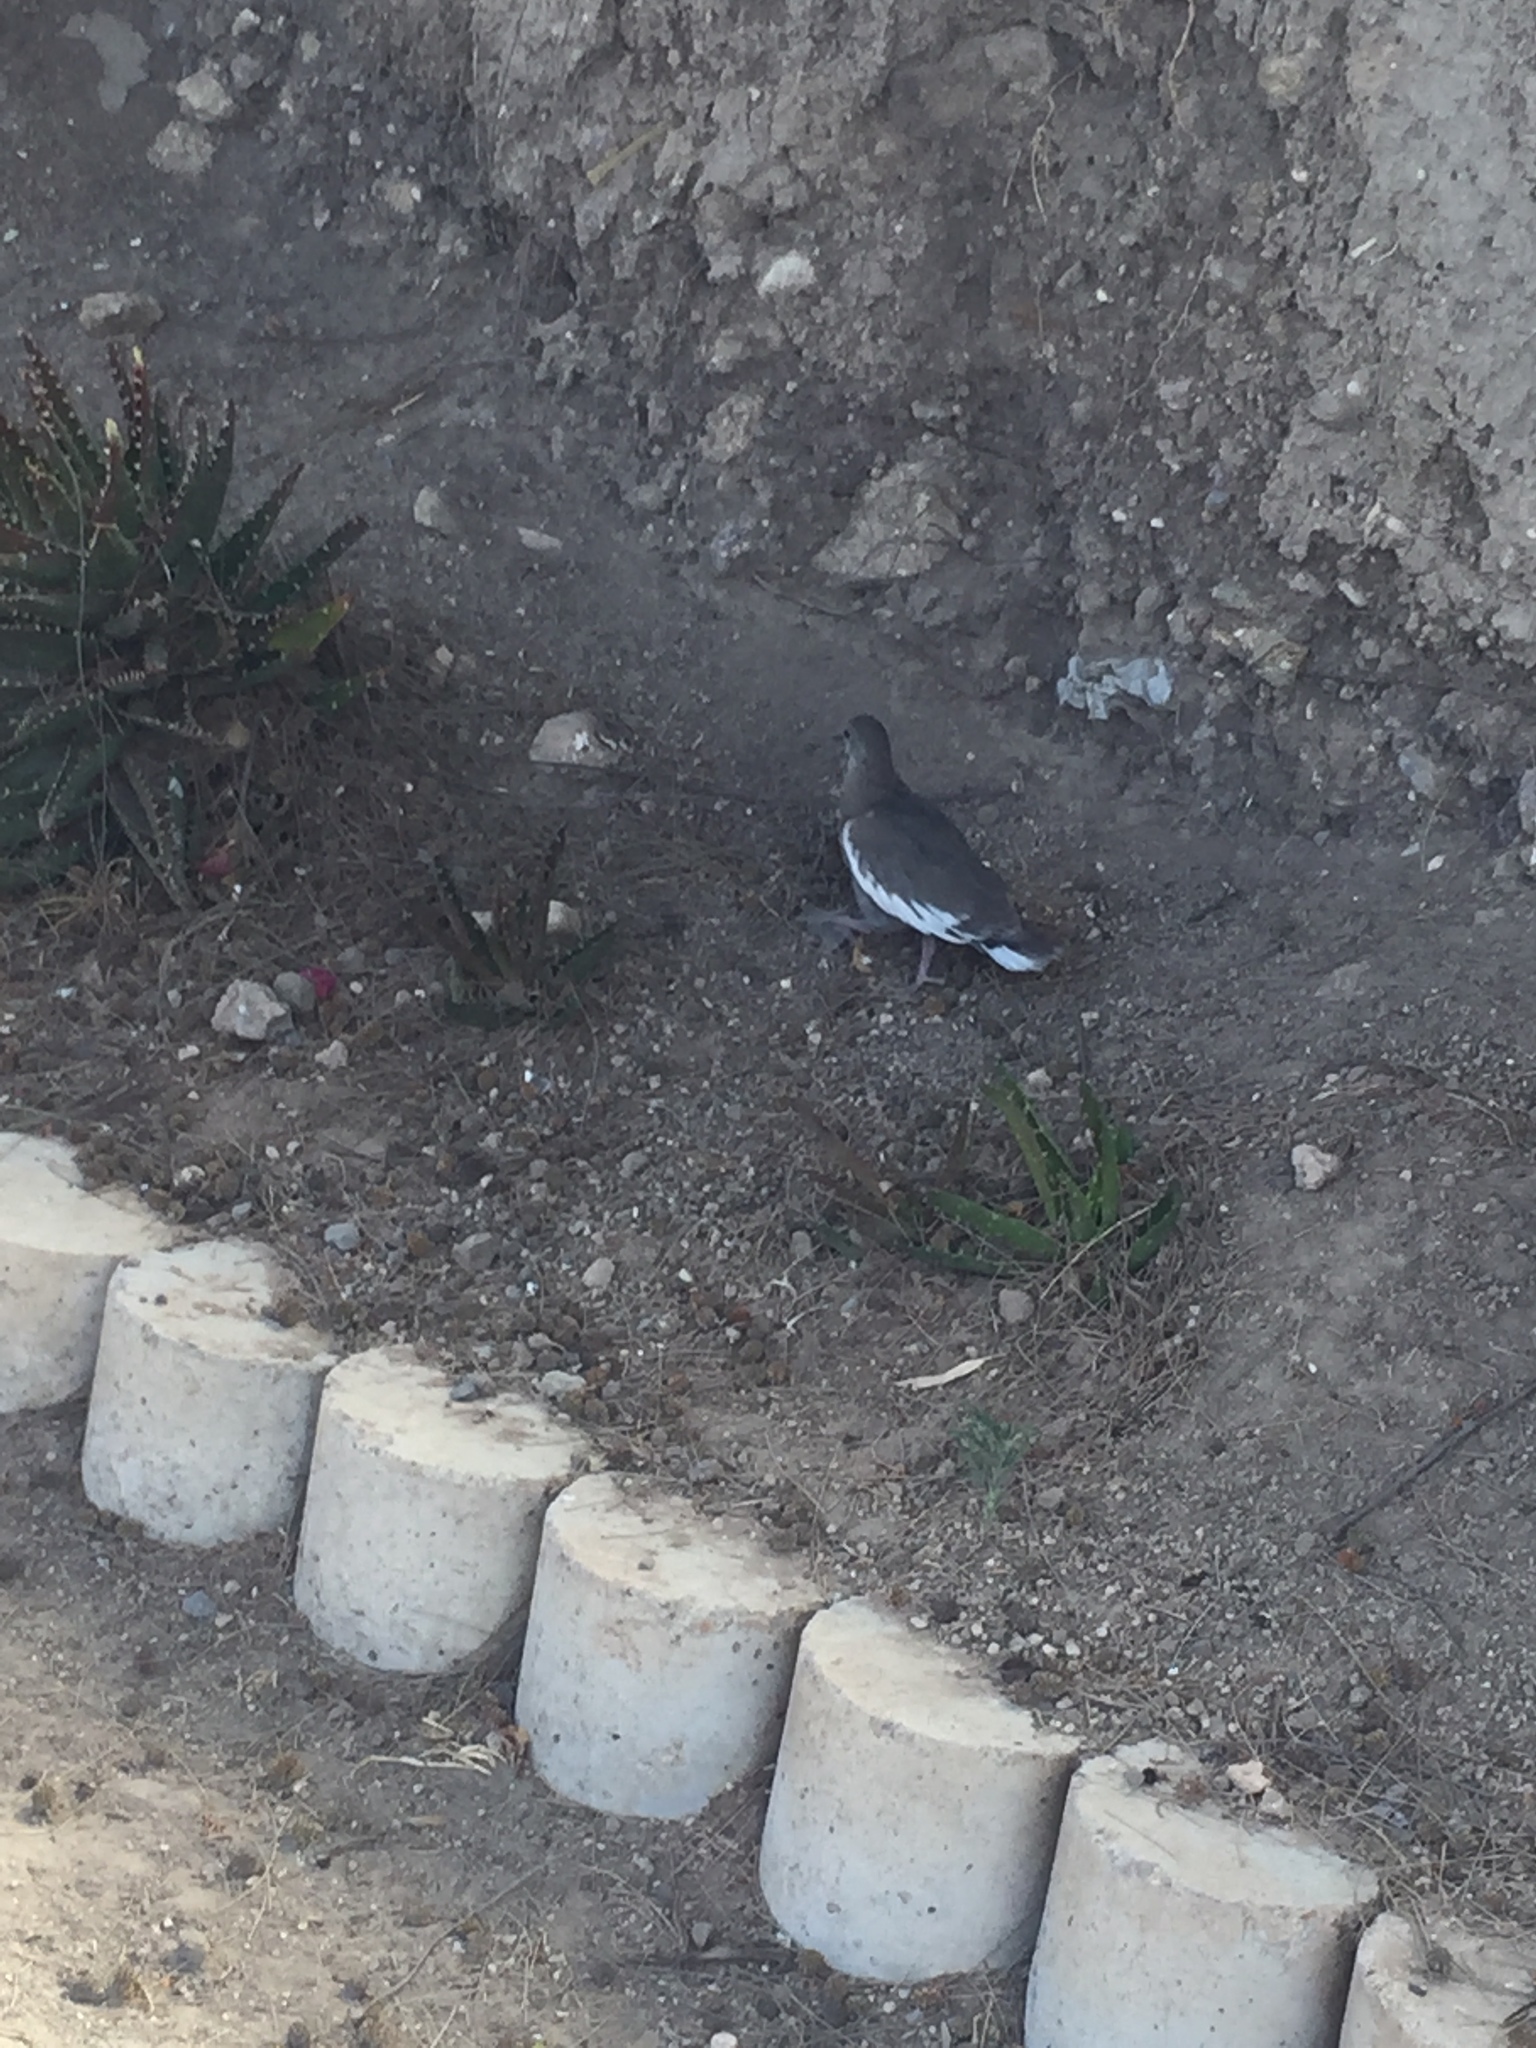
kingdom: Animalia
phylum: Chordata
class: Aves
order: Columbiformes
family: Columbidae
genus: Zenaida
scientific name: Zenaida asiatica
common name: White-winged dove
